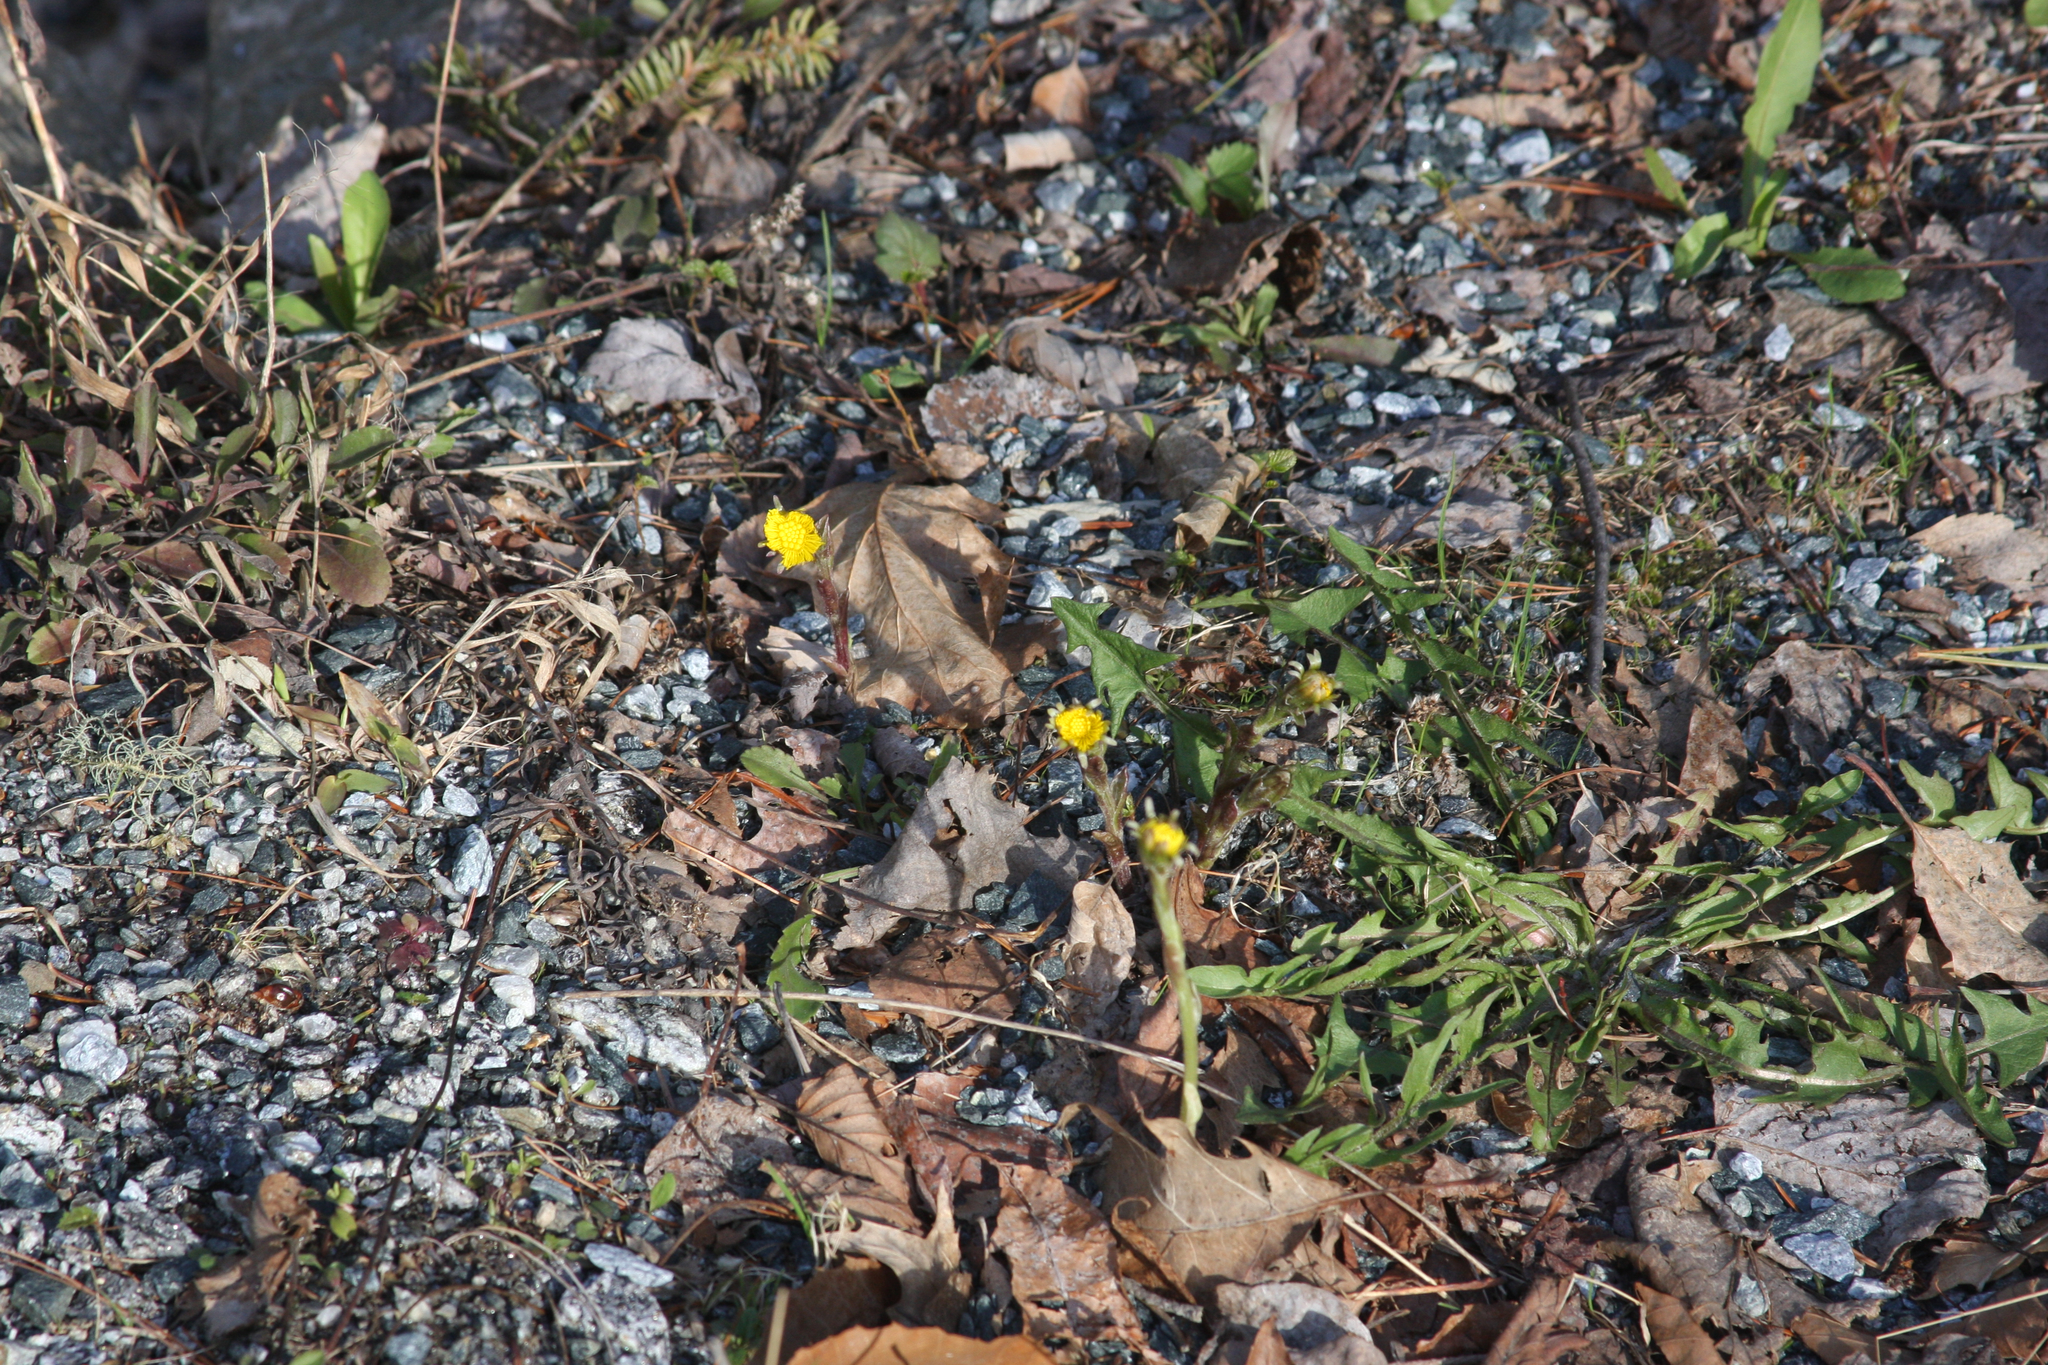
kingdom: Plantae
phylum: Tracheophyta
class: Magnoliopsida
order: Asterales
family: Asteraceae
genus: Tussilago
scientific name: Tussilago farfara
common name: Coltsfoot
